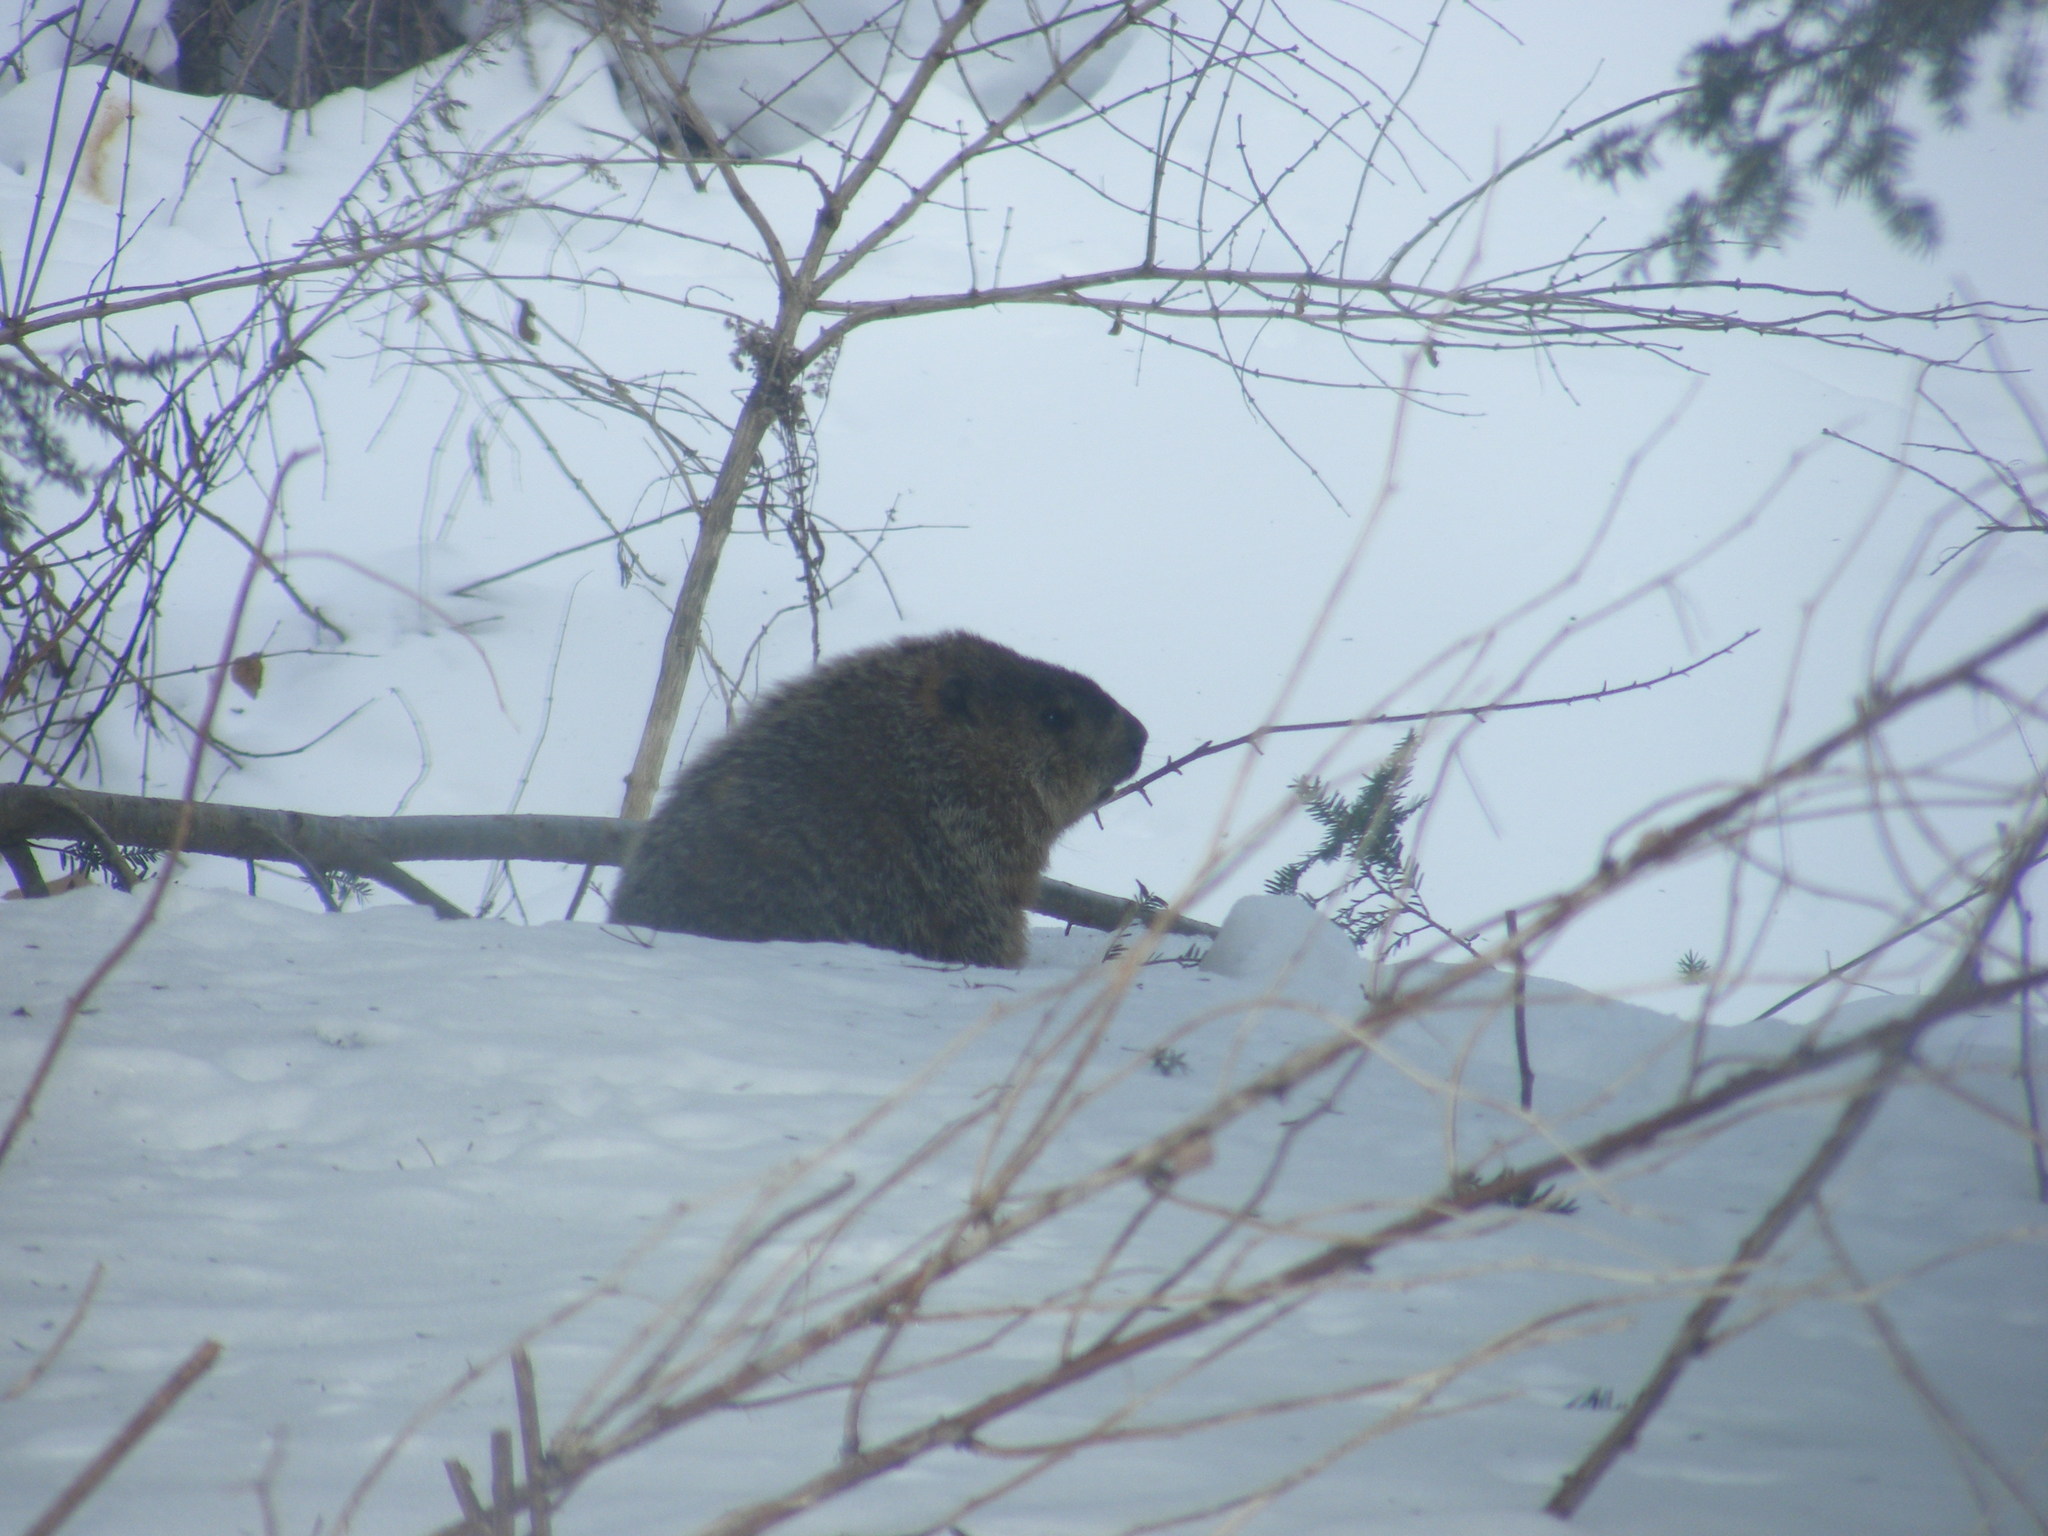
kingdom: Animalia
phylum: Chordata
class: Mammalia
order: Rodentia
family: Sciuridae
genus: Marmota
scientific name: Marmota monax
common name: Groundhog
